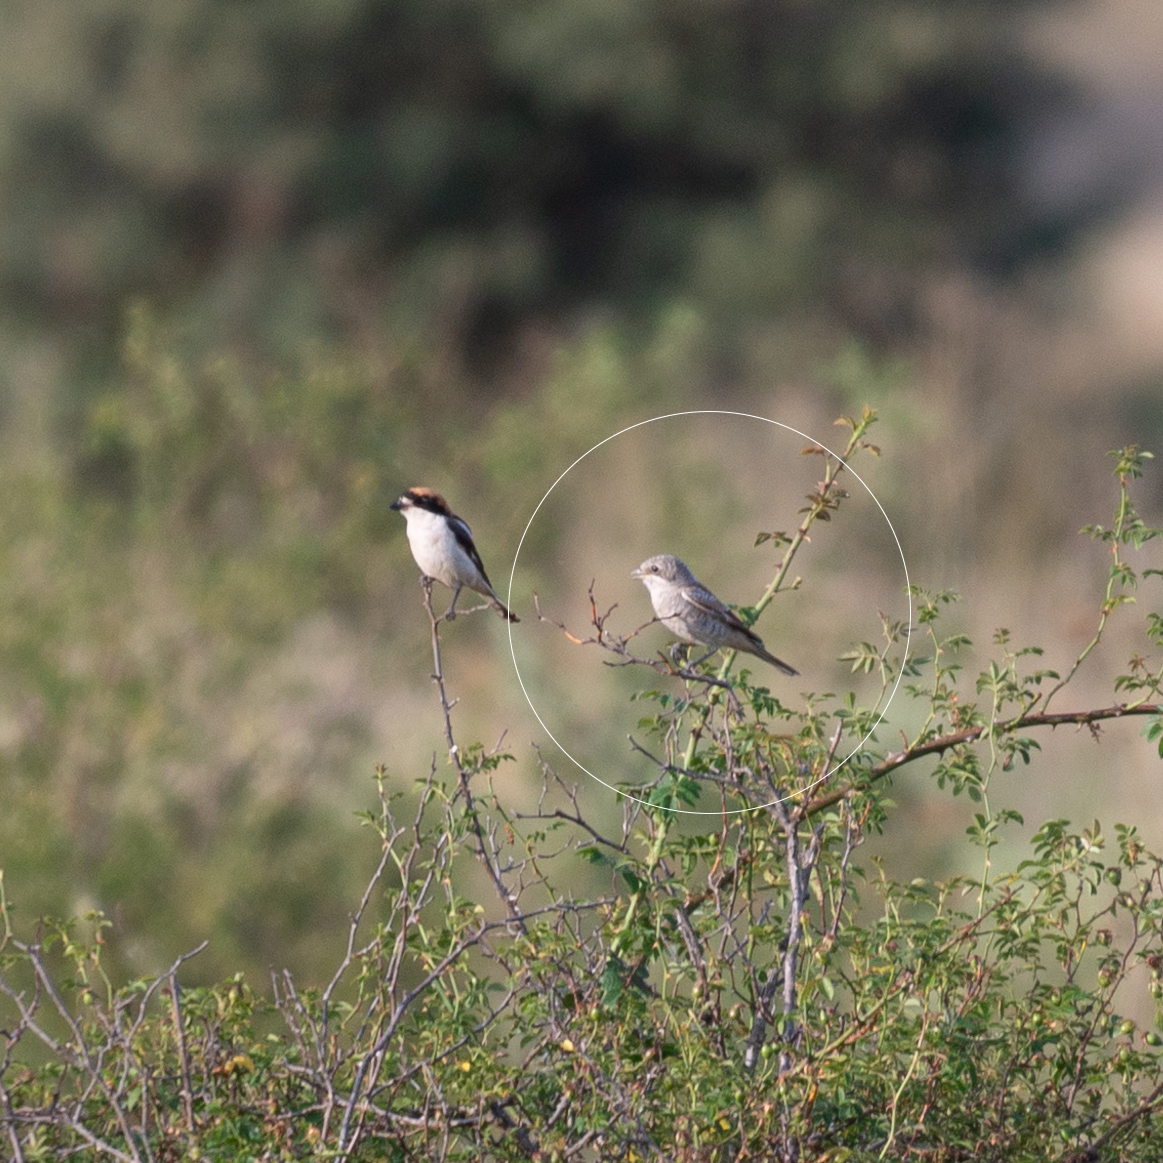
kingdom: Animalia
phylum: Chordata
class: Aves
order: Passeriformes
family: Laniidae
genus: Lanius
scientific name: Lanius senator
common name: Woodchat shrike
